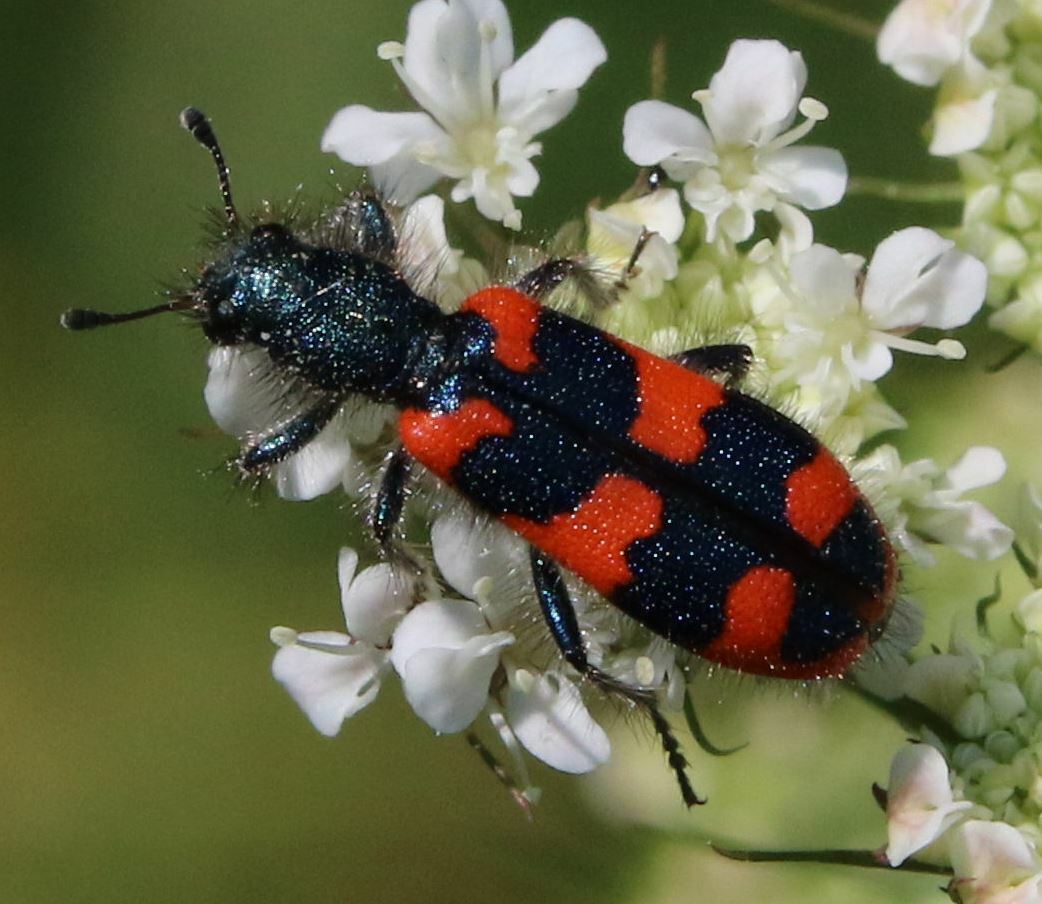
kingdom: Animalia
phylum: Arthropoda
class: Insecta
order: Coleoptera
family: Cleridae
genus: Trichodes
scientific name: Trichodes alvearius
